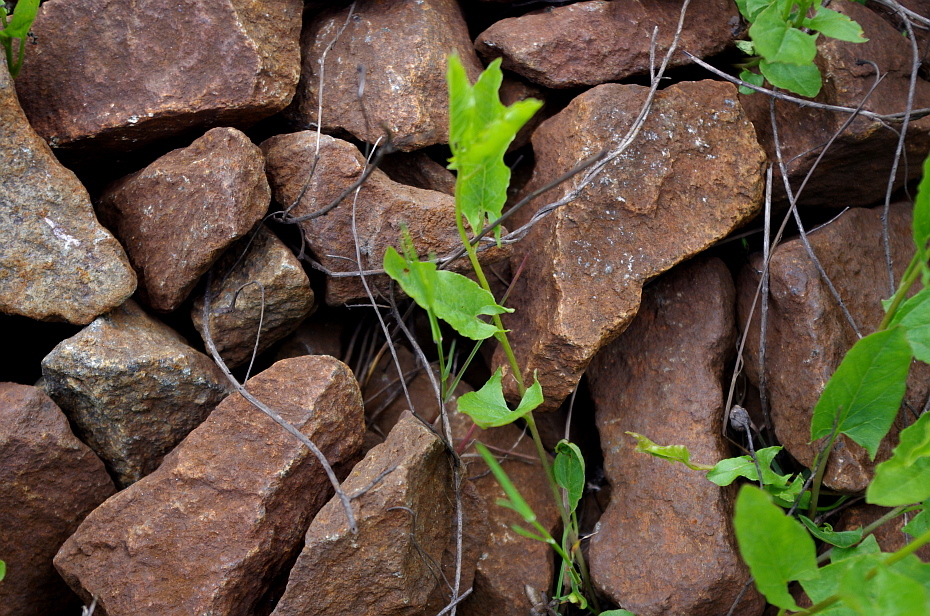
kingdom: Plantae
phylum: Tracheophyta
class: Magnoliopsida
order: Solanales
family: Convolvulaceae
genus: Convolvulus
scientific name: Convolvulus arvensis
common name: Field bindweed
